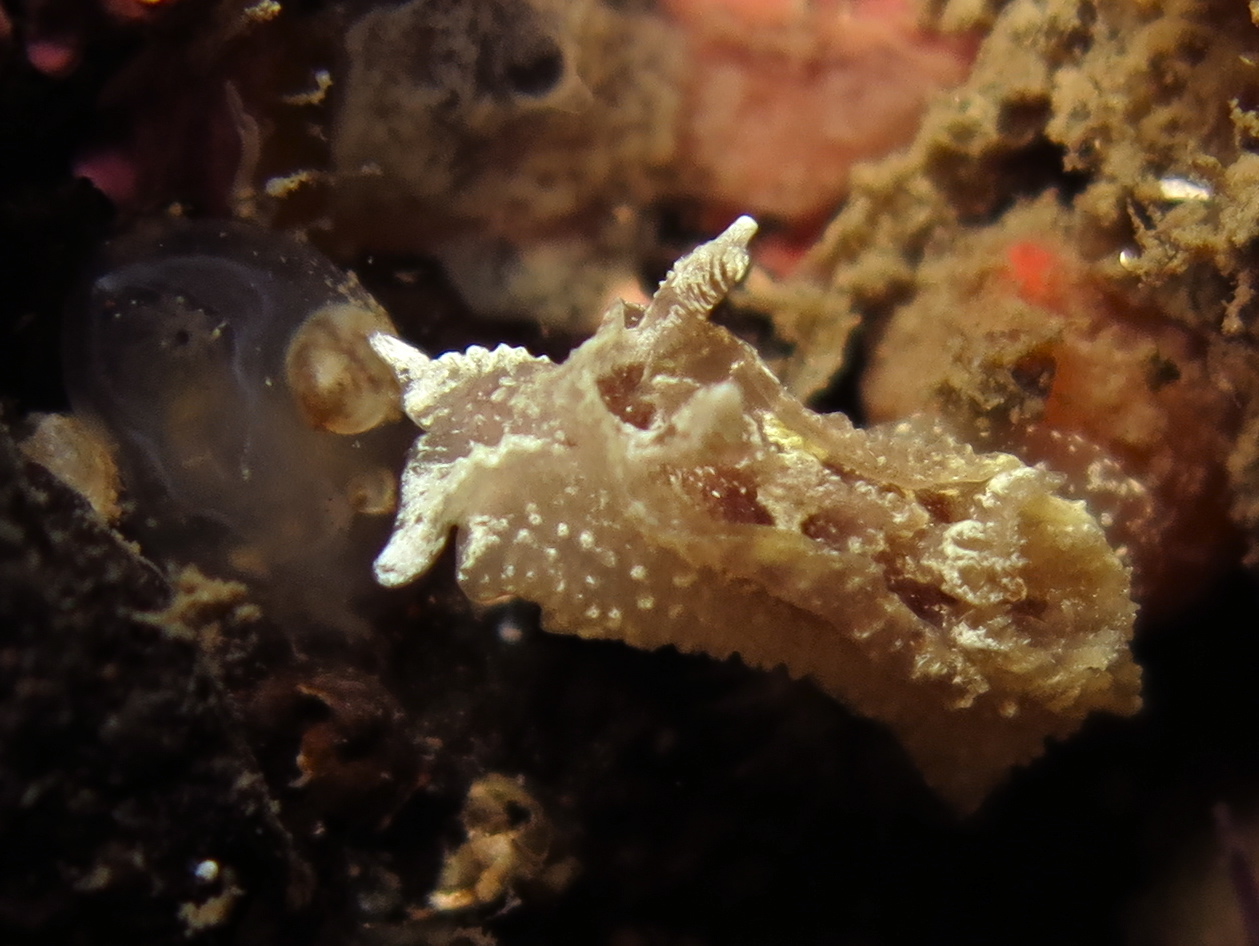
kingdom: Animalia
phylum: Mollusca
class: Gastropoda
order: Nudibranchia
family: Goniodorididae
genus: Pelagella
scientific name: Pelagella castanea
